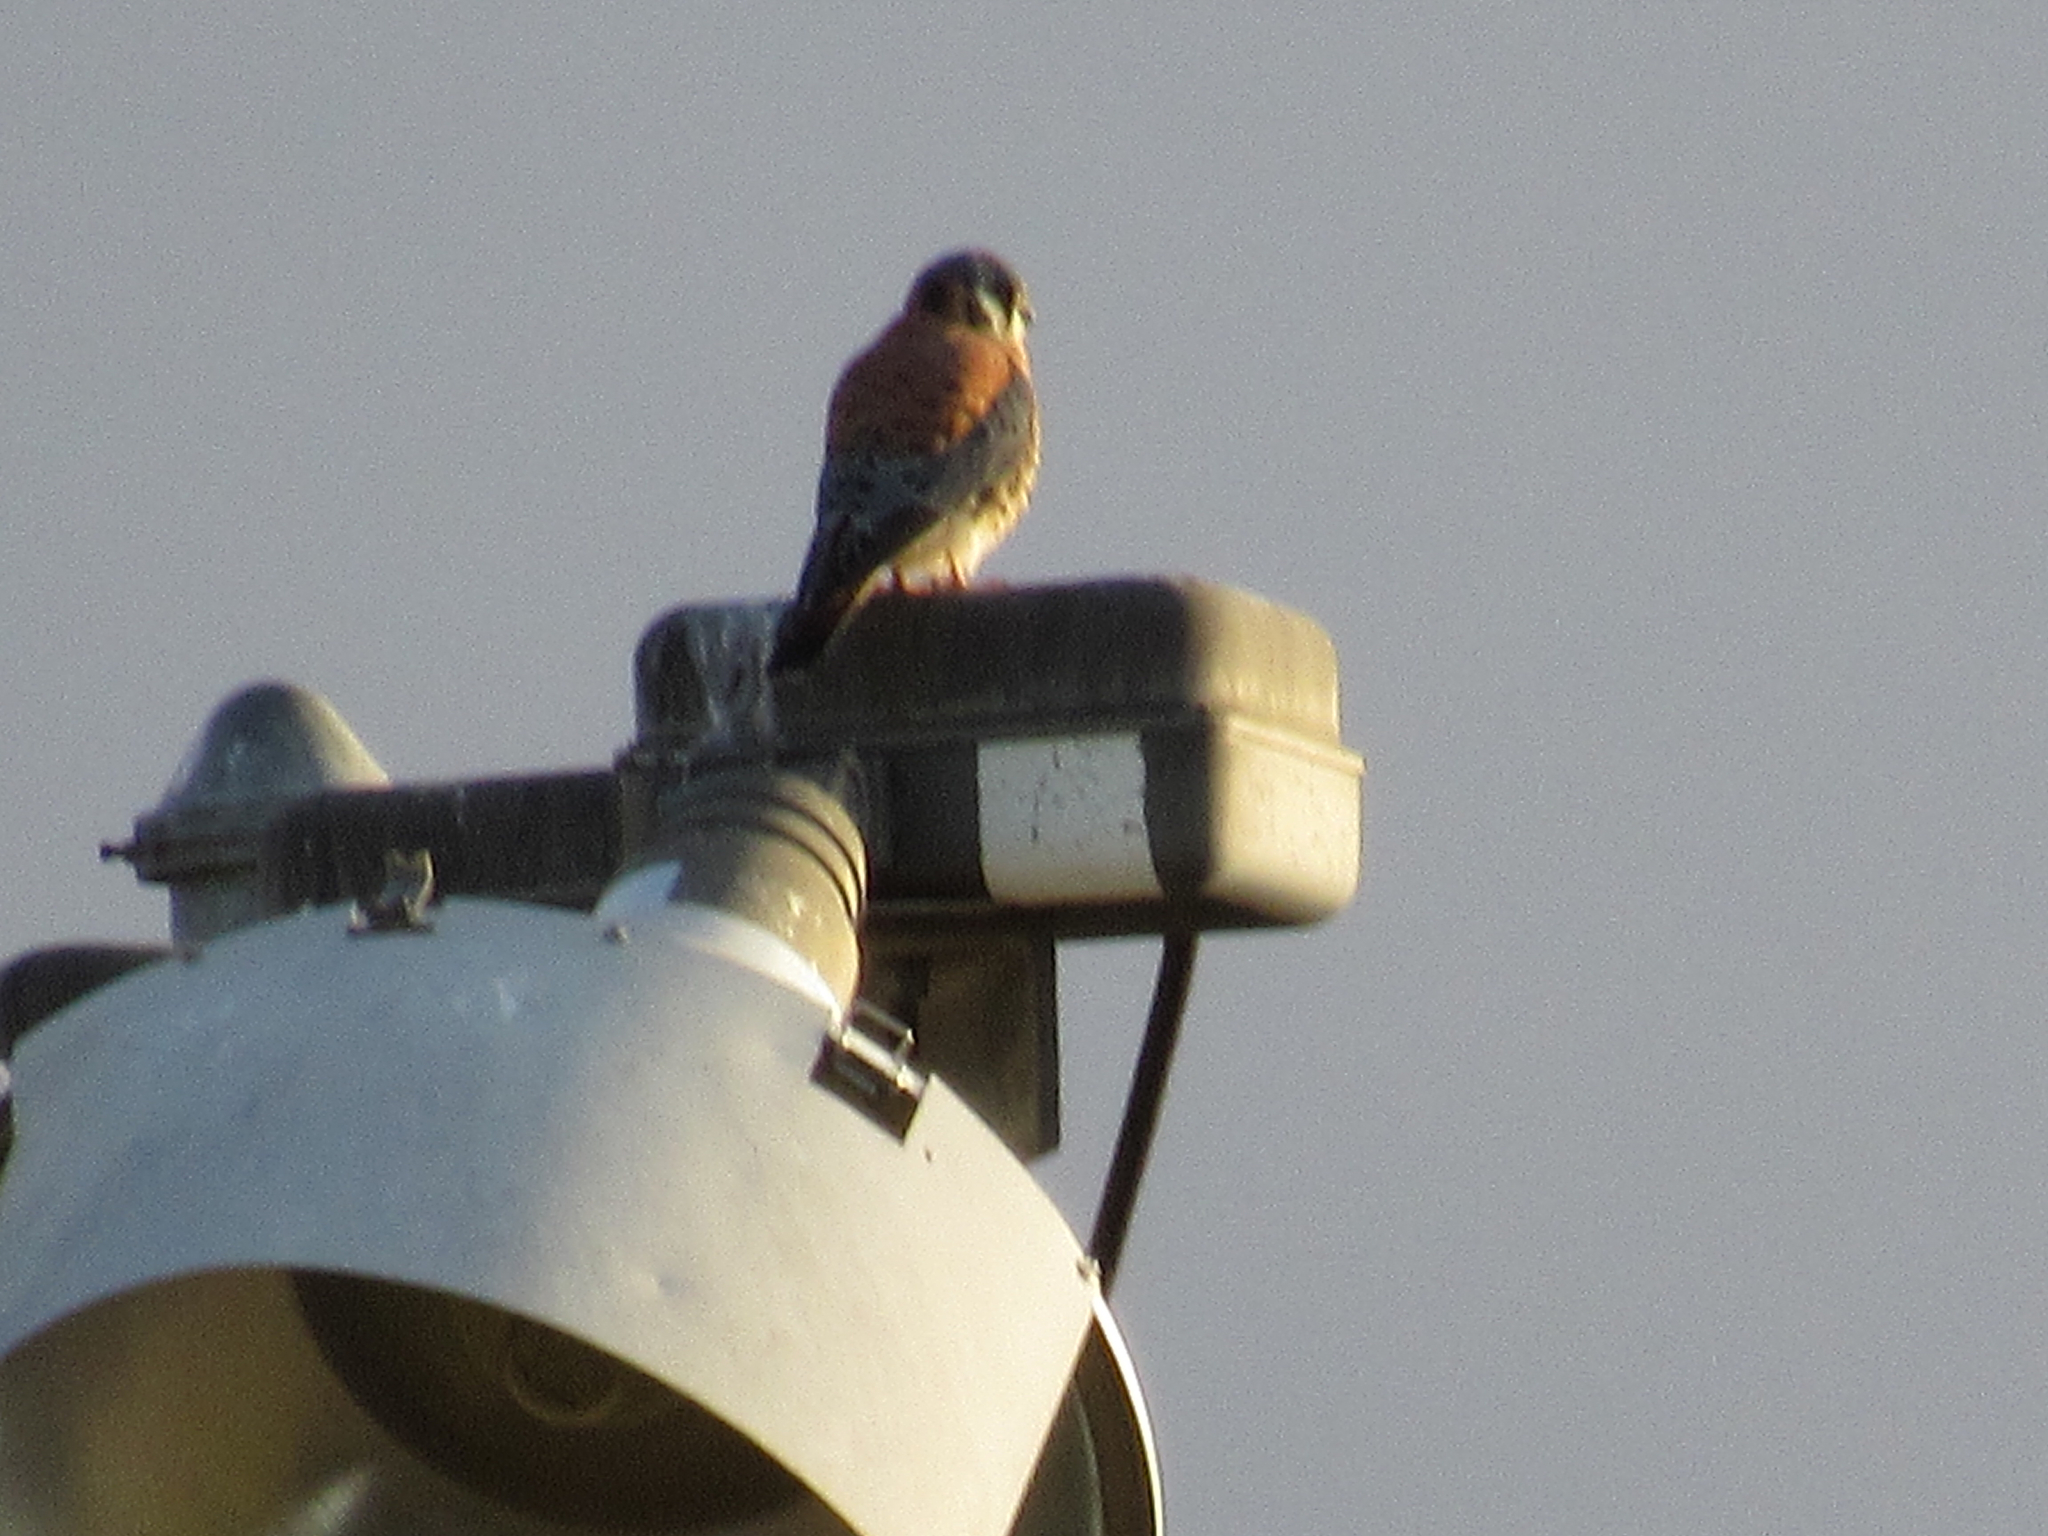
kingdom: Animalia
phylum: Chordata
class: Aves
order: Falconiformes
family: Falconidae
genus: Falco
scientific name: Falco sparverius
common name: American kestrel
